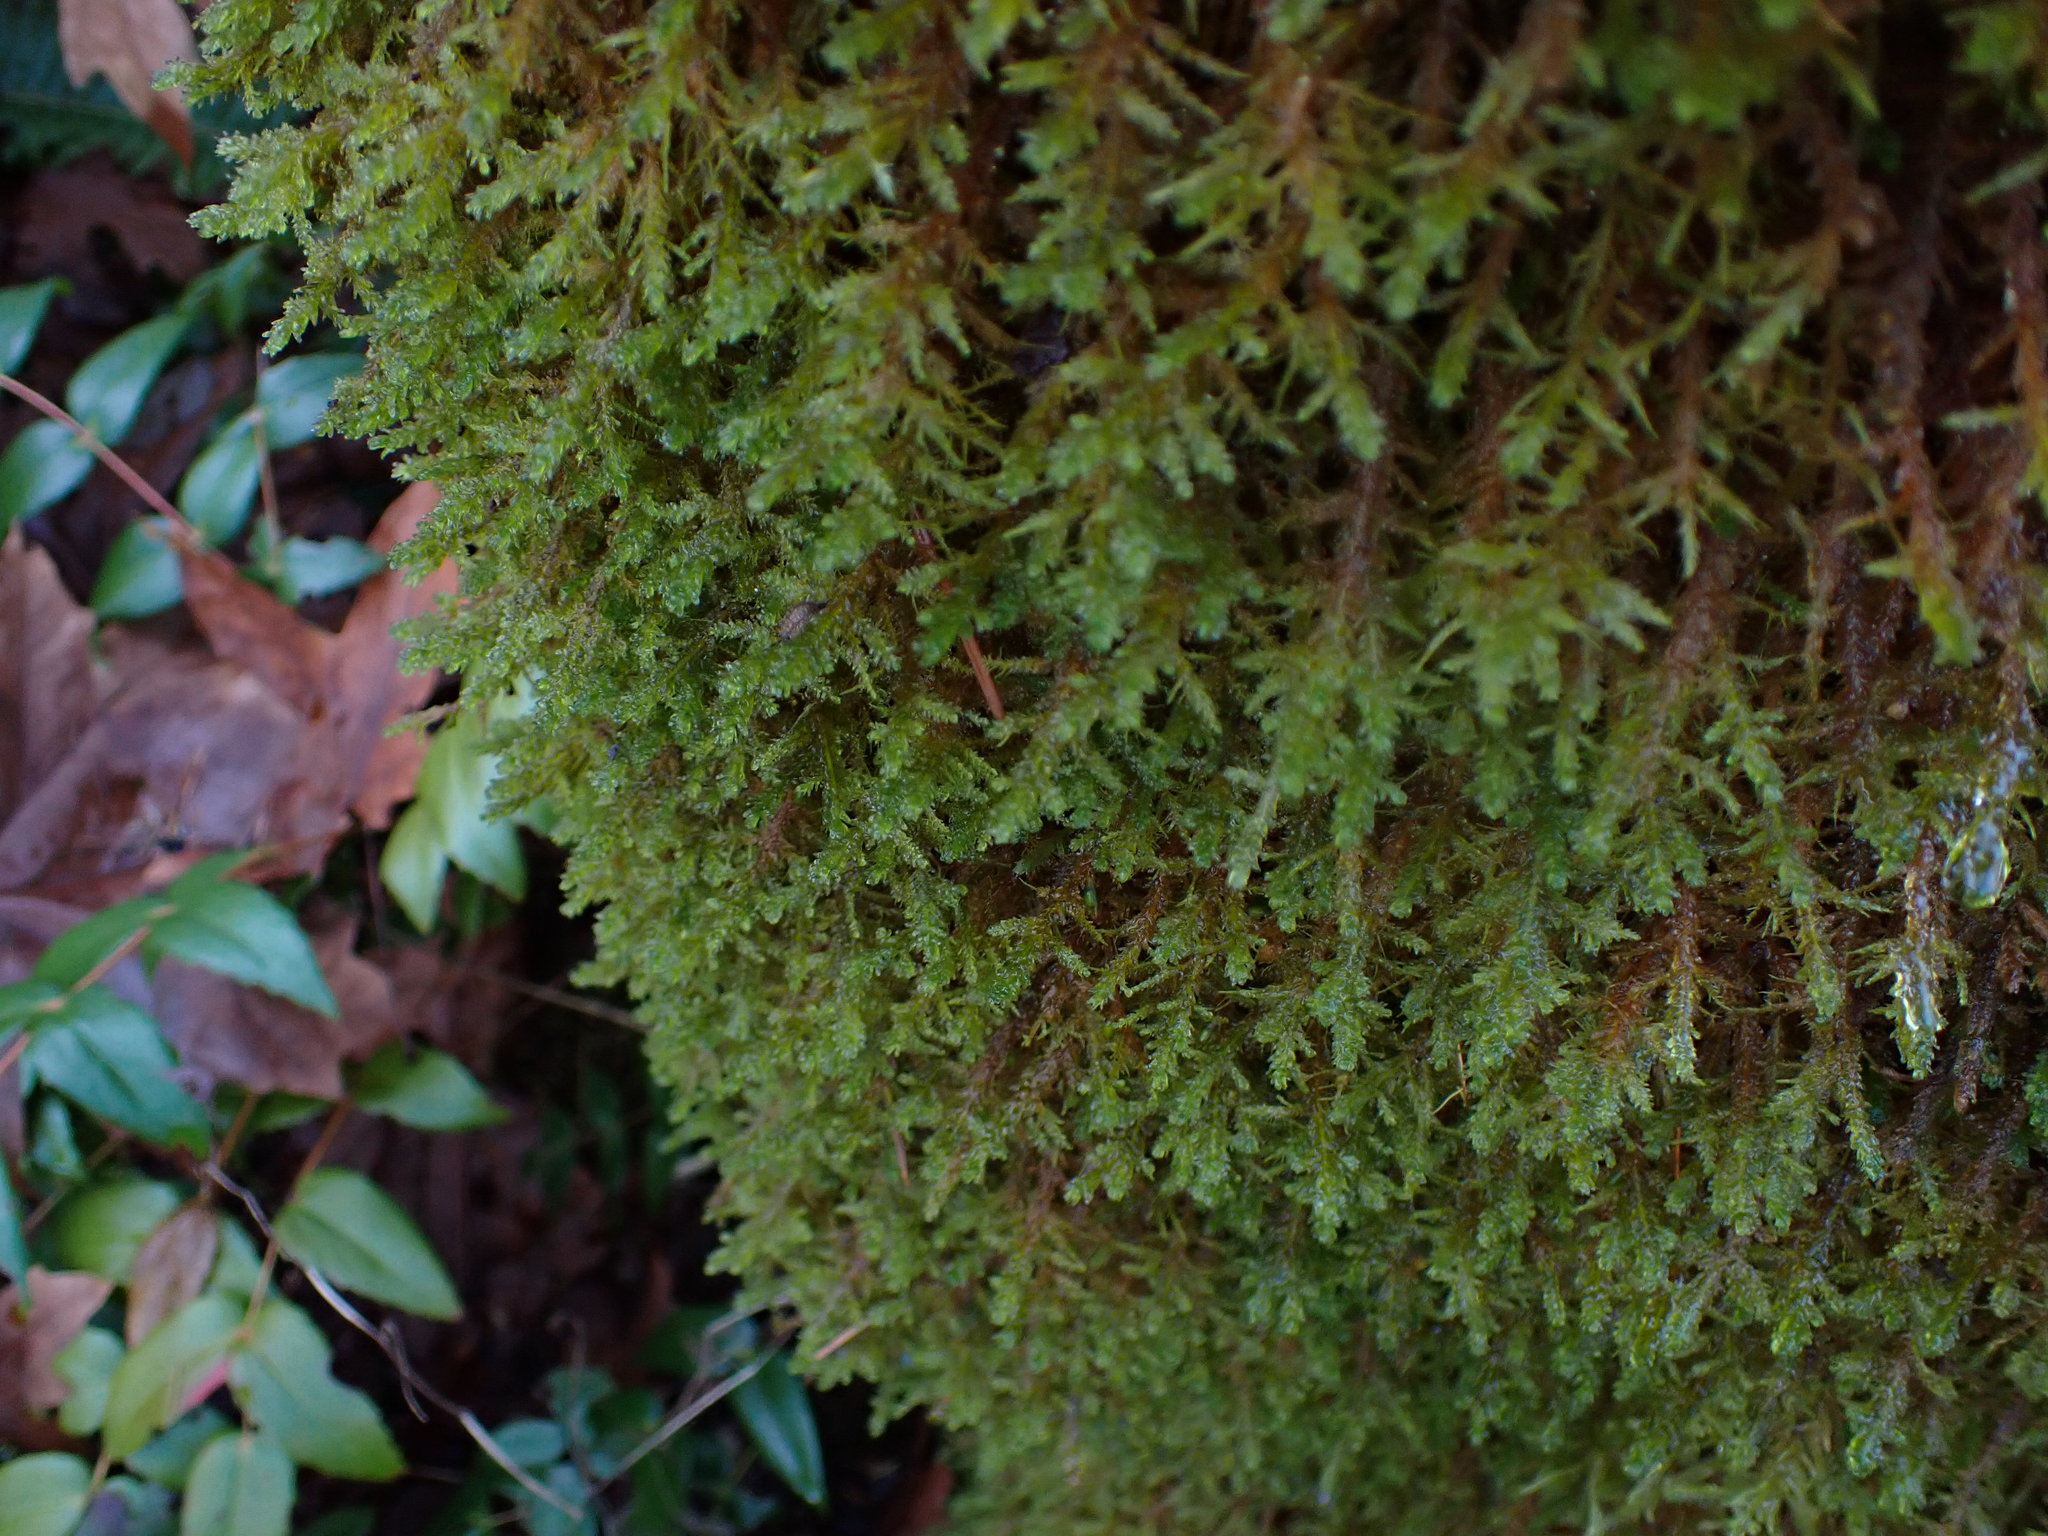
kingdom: Plantae
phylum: Bryophyta
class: Bryopsida
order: Hypnales
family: Neckeraceae
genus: Metaneckera
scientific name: Metaneckera menziesii
